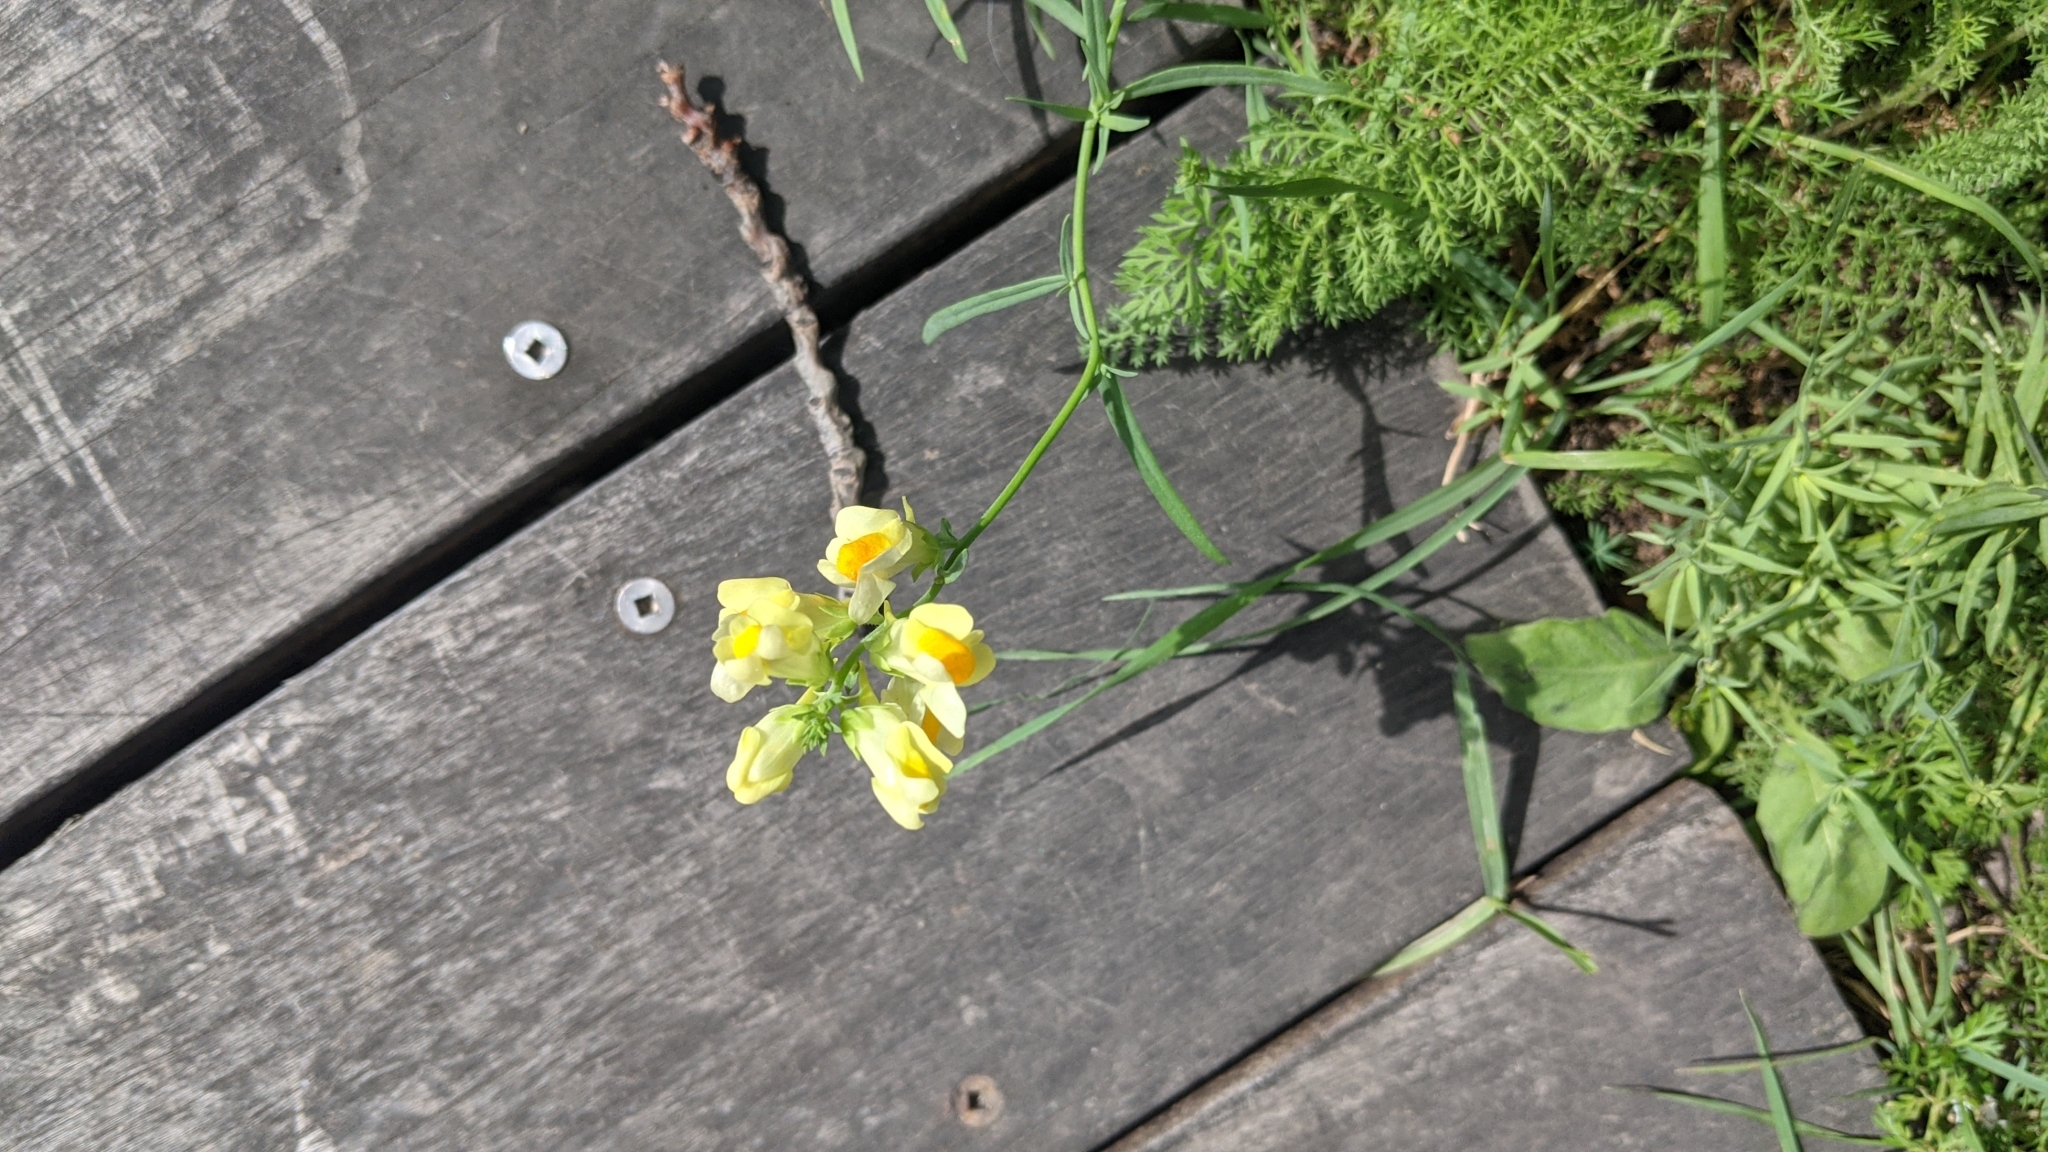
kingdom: Plantae
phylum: Tracheophyta
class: Magnoliopsida
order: Lamiales
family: Plantaginaceae
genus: Linaria
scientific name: Linaria vulgaris
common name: Butter and eggs
